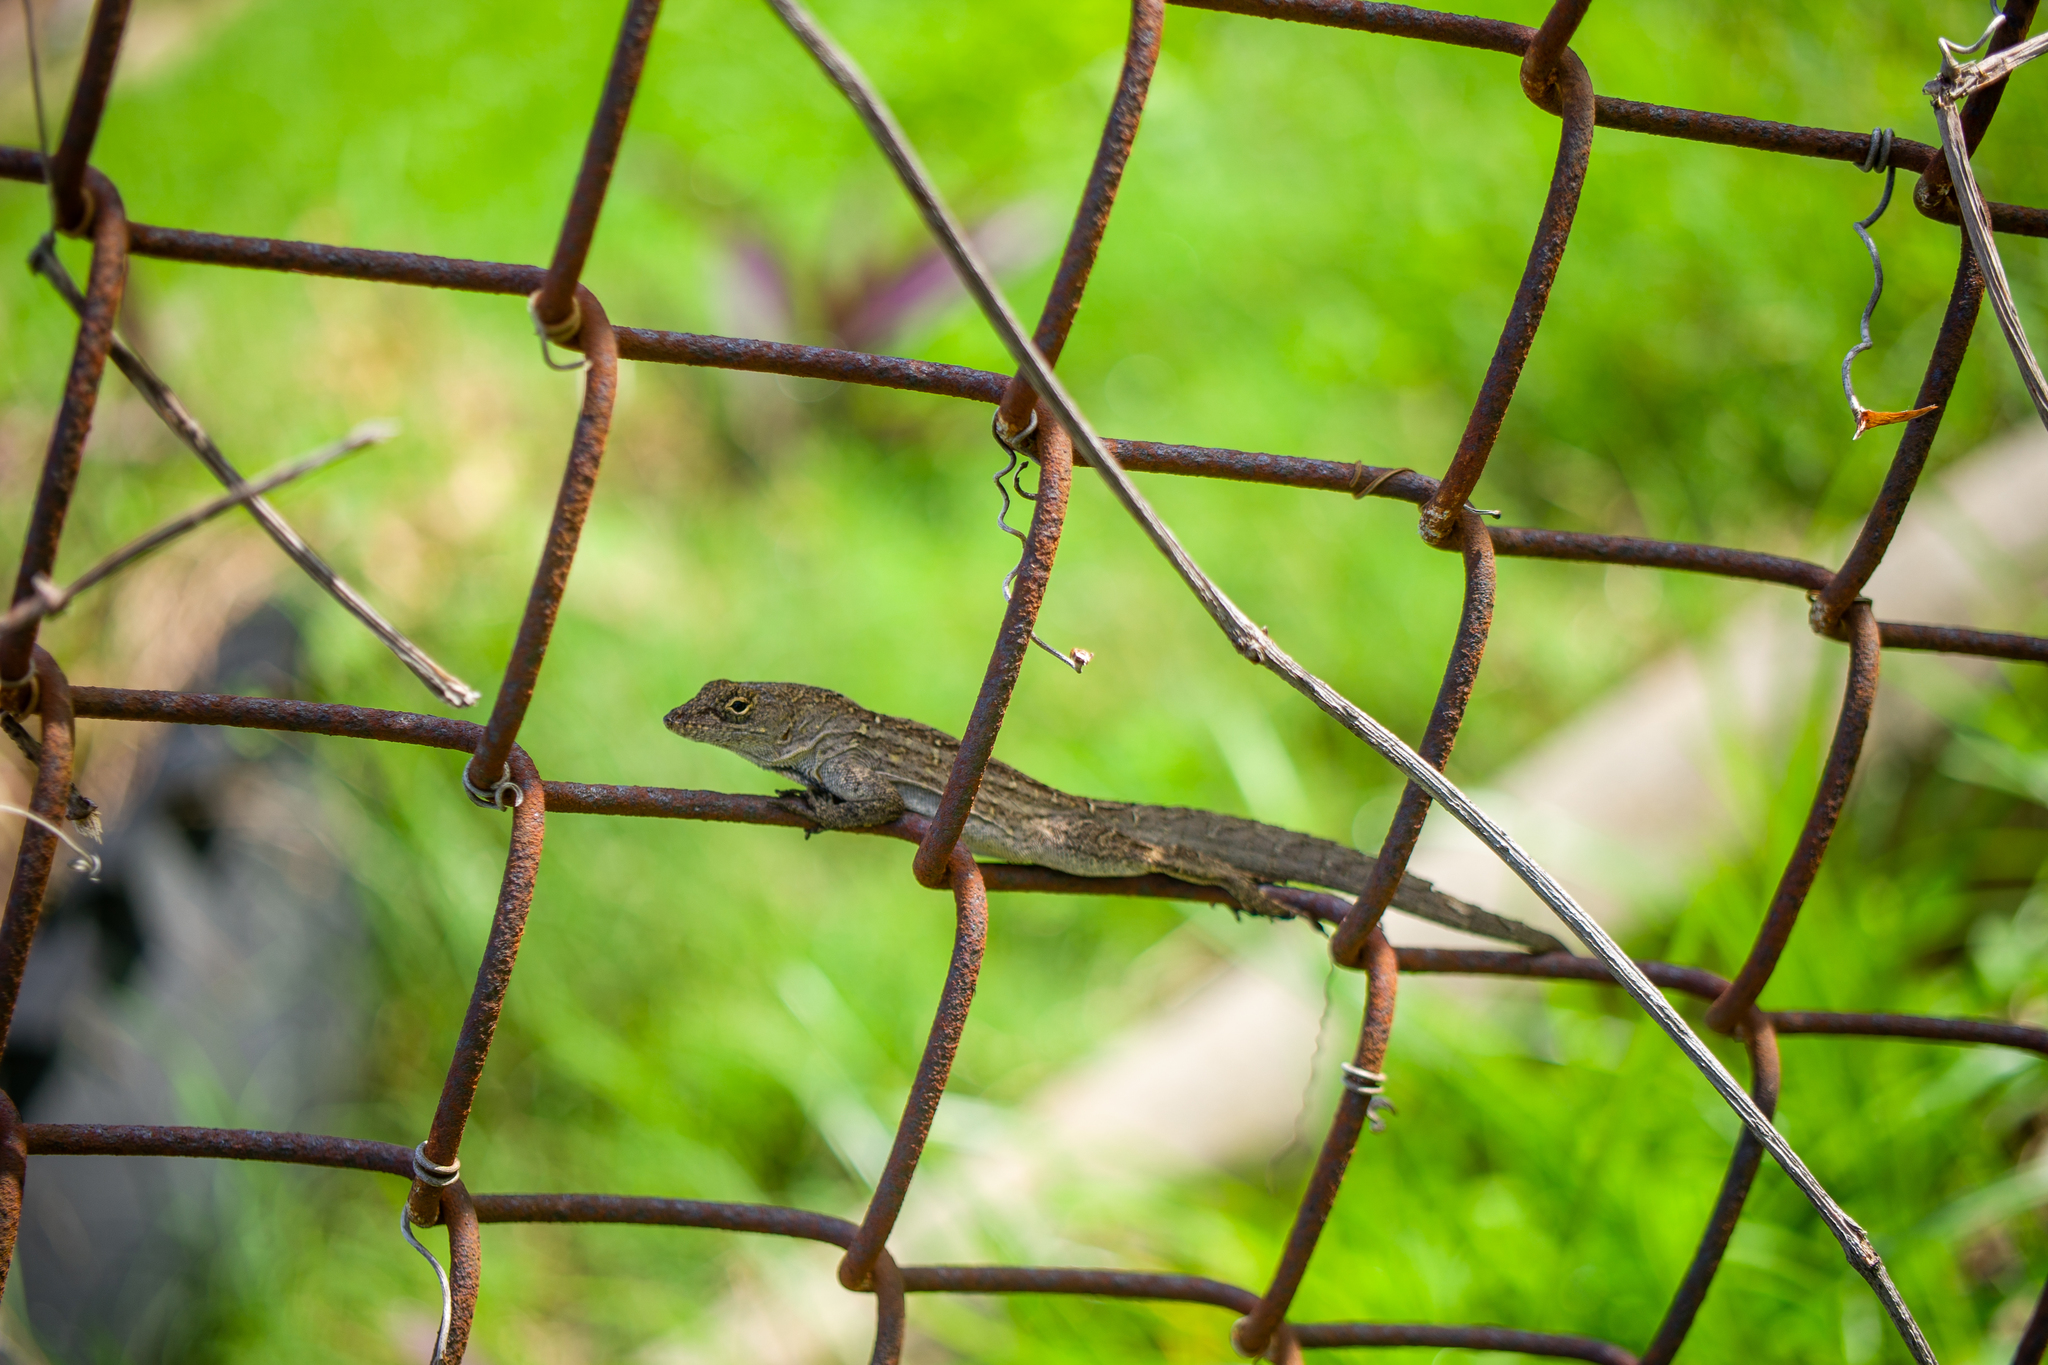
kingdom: Animalia
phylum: Chordata
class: Squamata
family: Dactyloidae
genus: Anolis
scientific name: Anolis sagrei
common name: Brown anole
